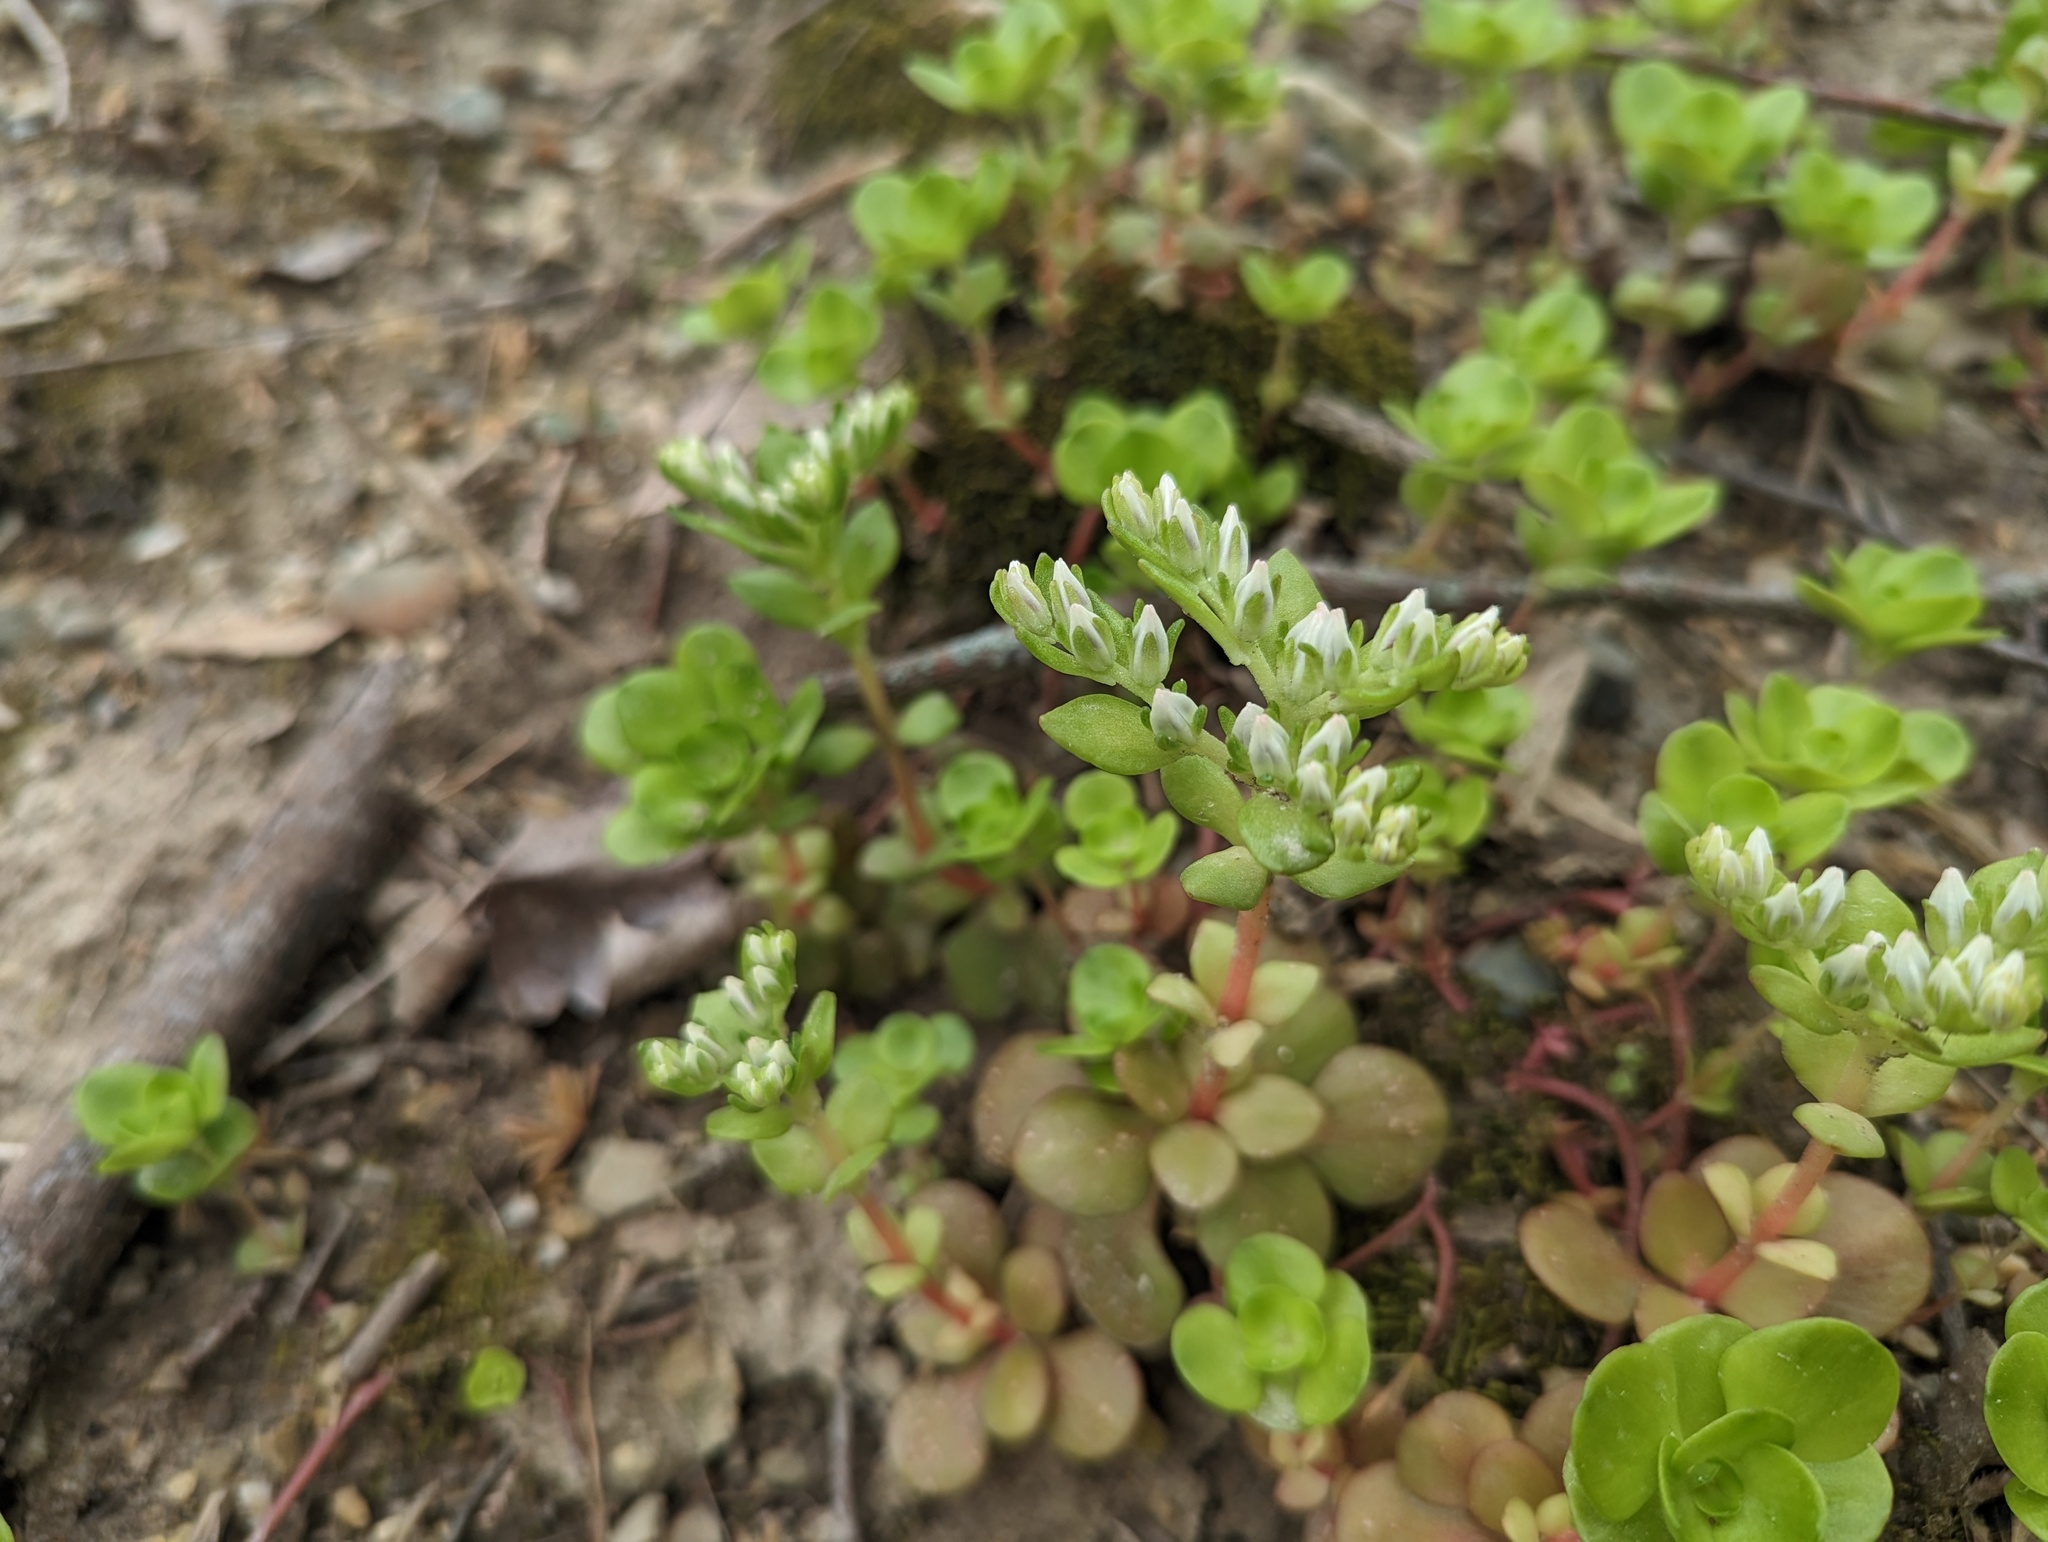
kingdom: Plantae
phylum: Tracheophyta
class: Magnoliopsida
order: Saxifragales
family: Crassulaceae
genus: Sedum
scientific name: Sedum ternatum
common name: Wild stonecrop
